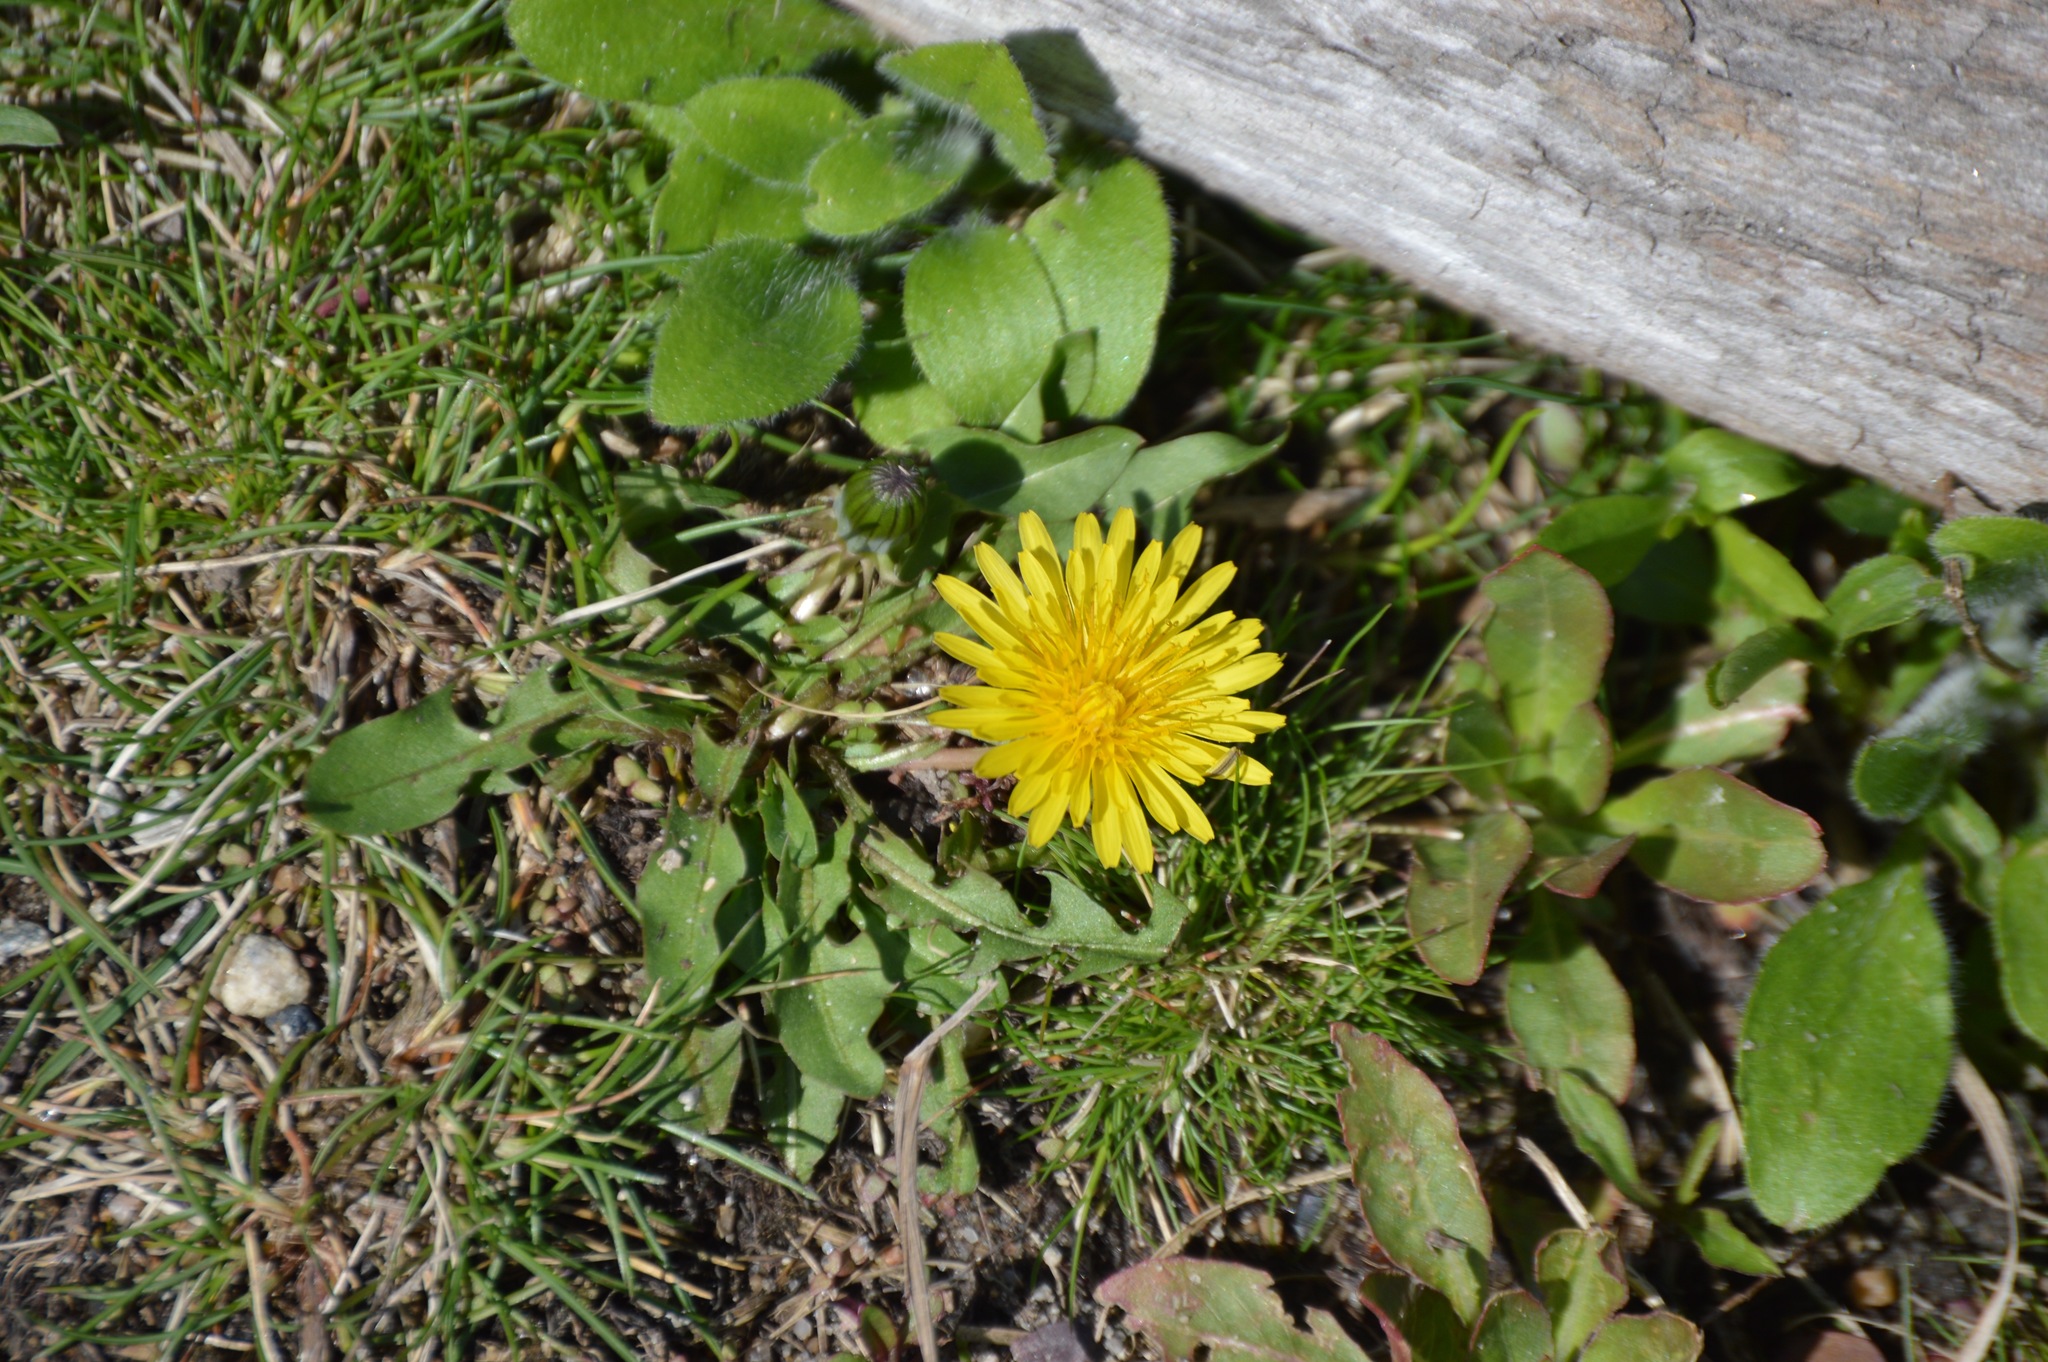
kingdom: Plantae
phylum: Tracheophyta
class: Magnoliopsida
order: Asterales
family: Asteraceae
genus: Taraxacum
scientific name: Taraxacum officinale
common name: Common dandelion
